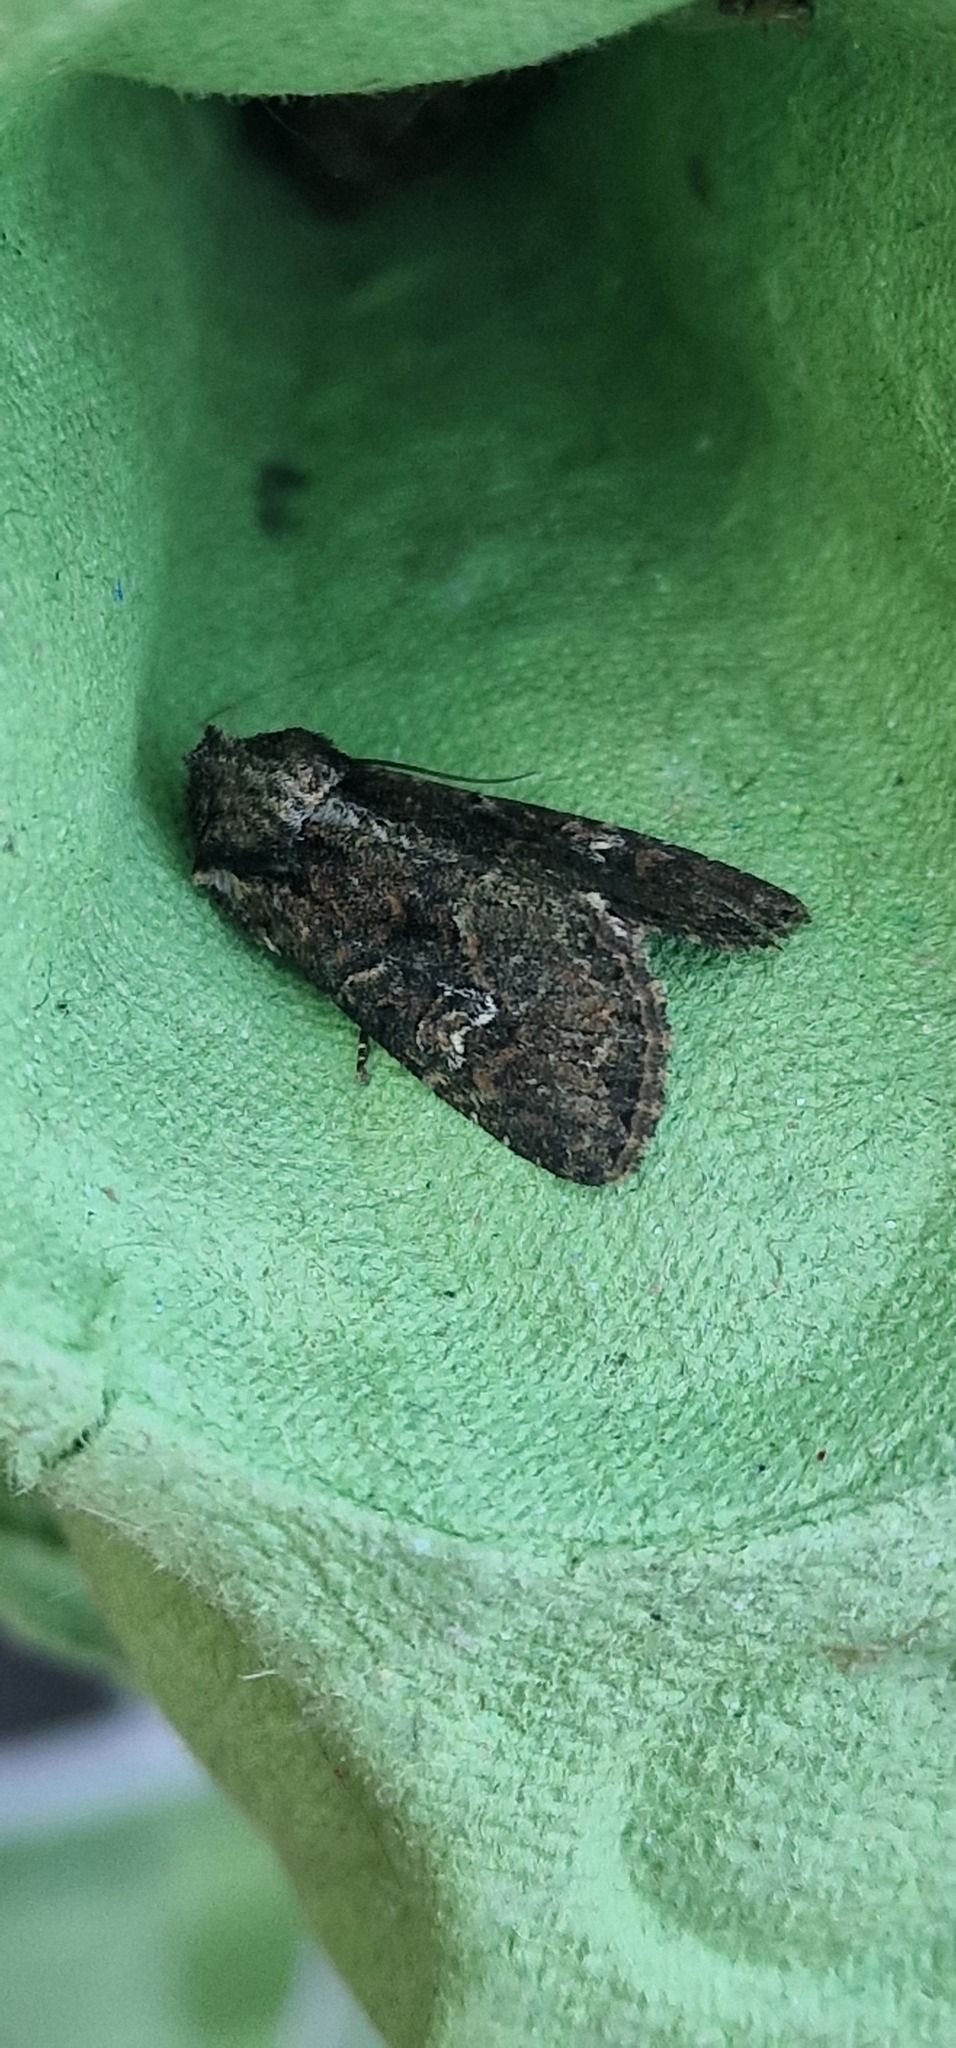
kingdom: Animalia
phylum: Arthropoda
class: Insecta
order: Lepidoptera
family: Noctuidae
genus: Apamea
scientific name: Apamea unanimis
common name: Small clouded brindle
